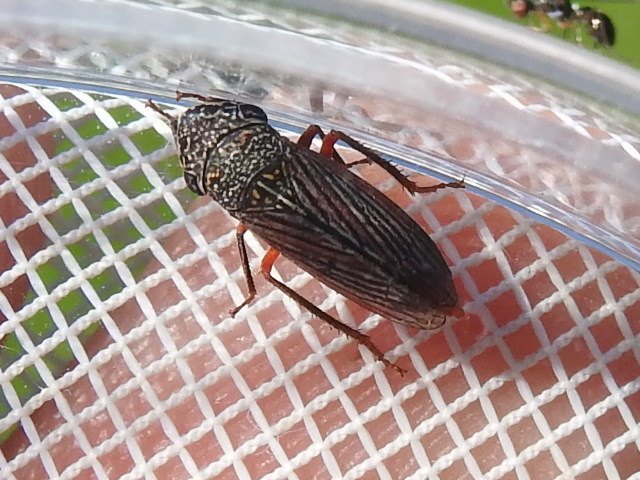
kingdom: Animalia
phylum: Arthropoda
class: Insecta
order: Hemiptera
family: Cicadellidae
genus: Cuerna
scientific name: Cuerna costalis
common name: Lateral-lined sharpshooter
